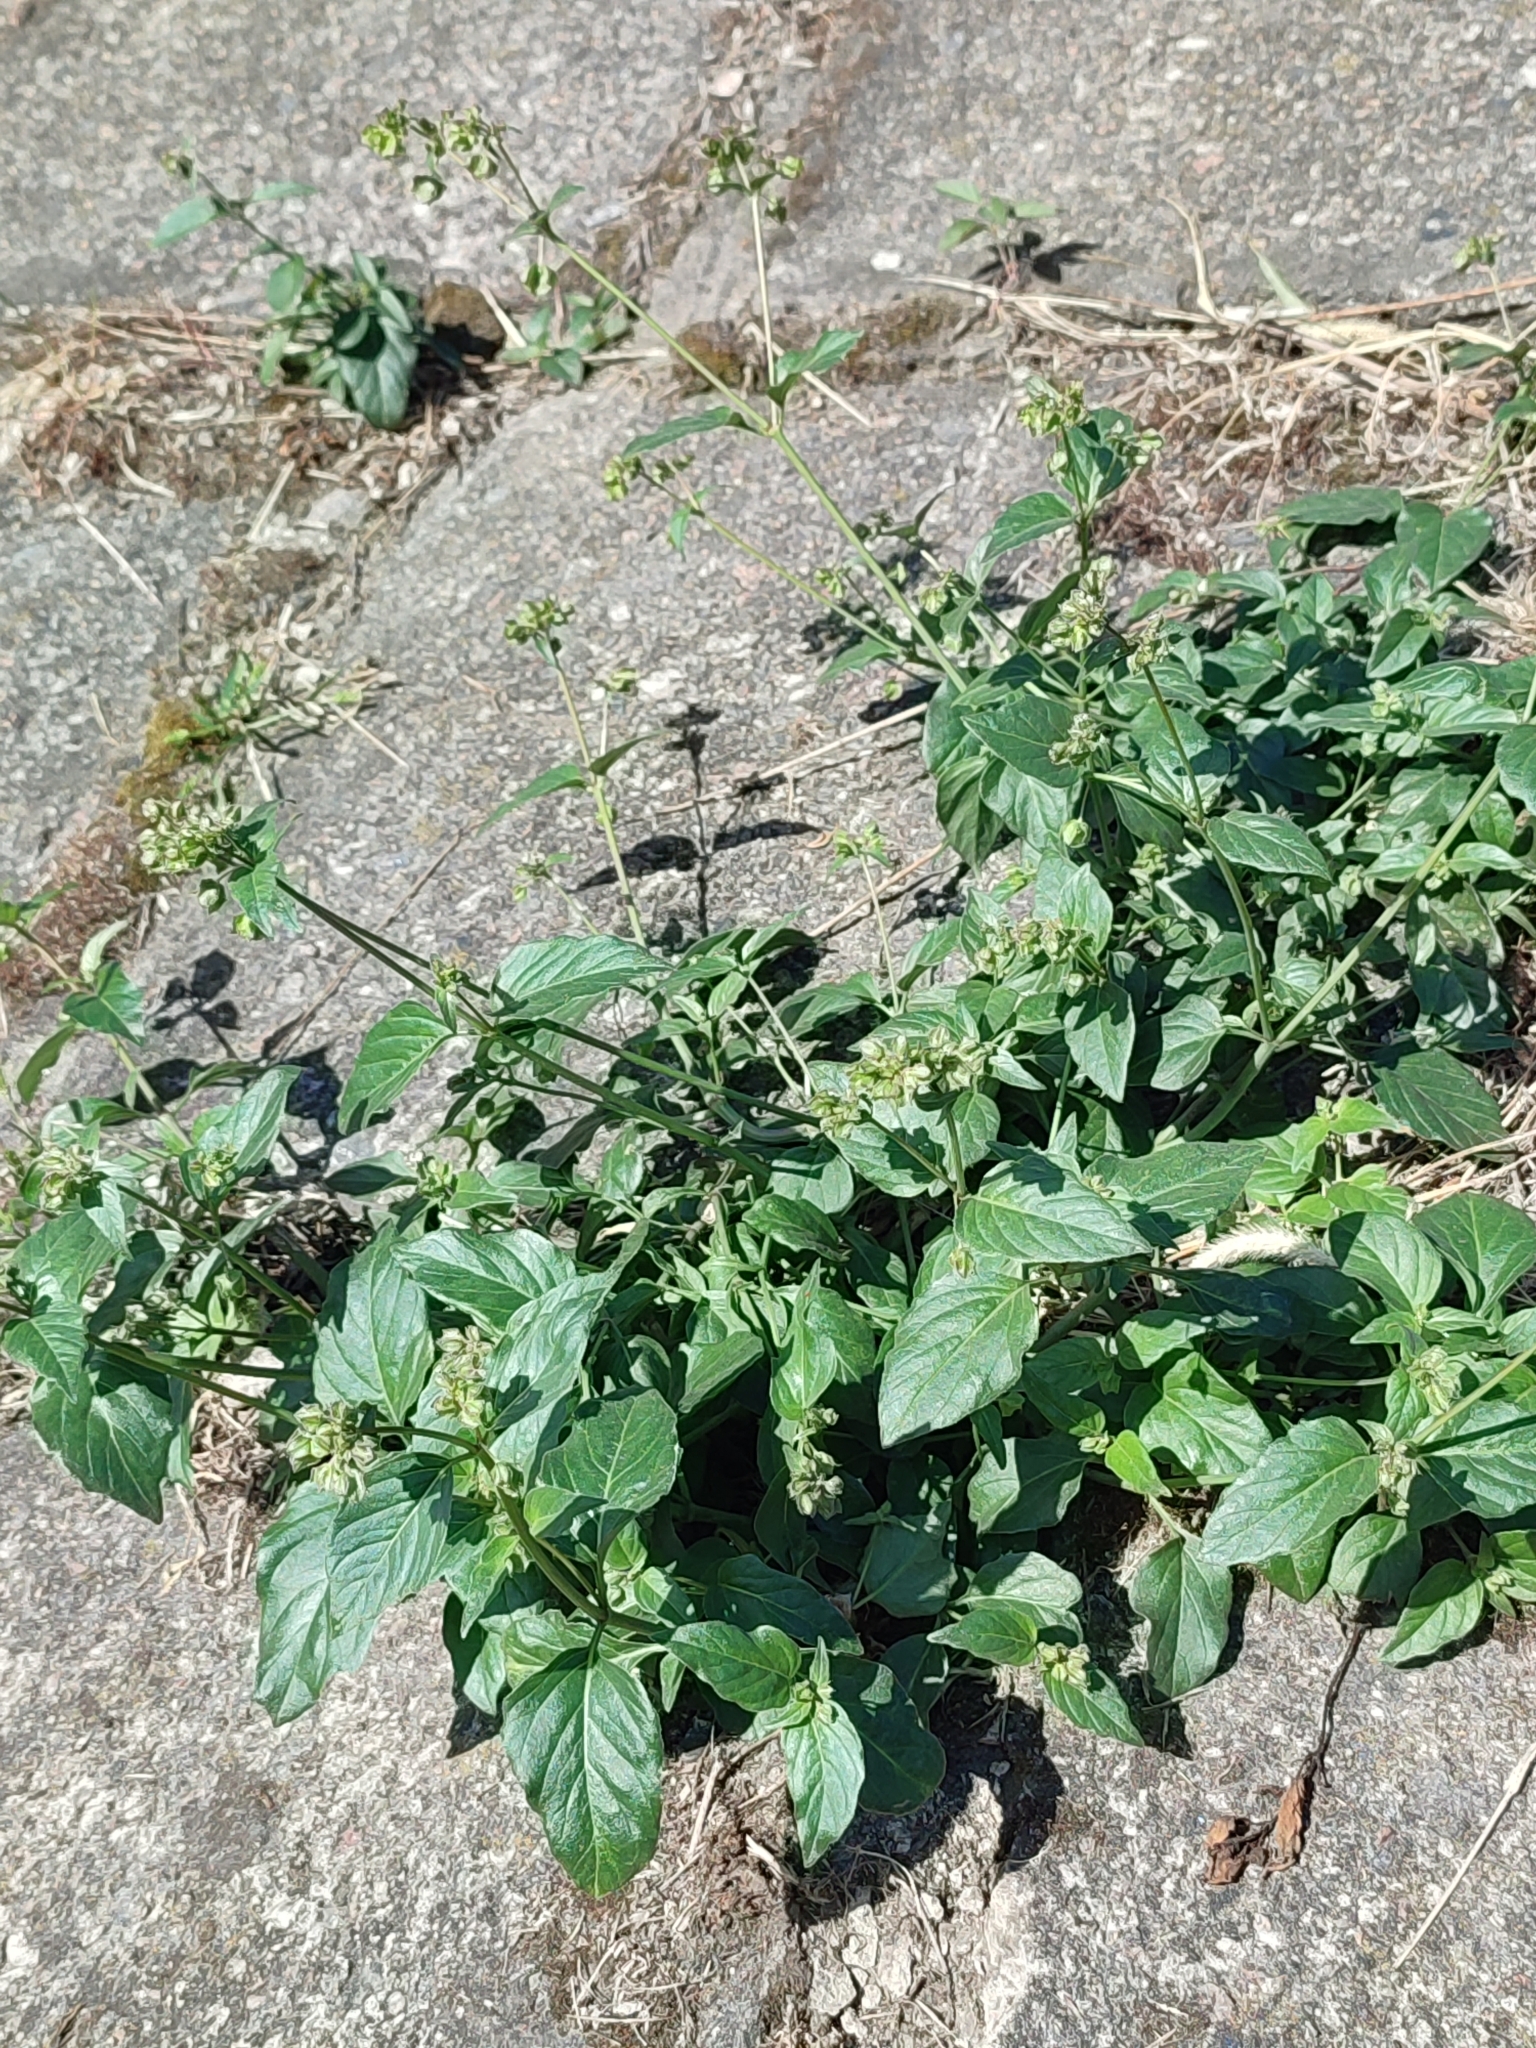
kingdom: Plantae
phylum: Tracheophyta
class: Magnoliopsida
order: Caryophyllales
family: Nyctaginaceae
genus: Mirabilis
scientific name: Mirabilis nyctaginea
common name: Umbrella wort
